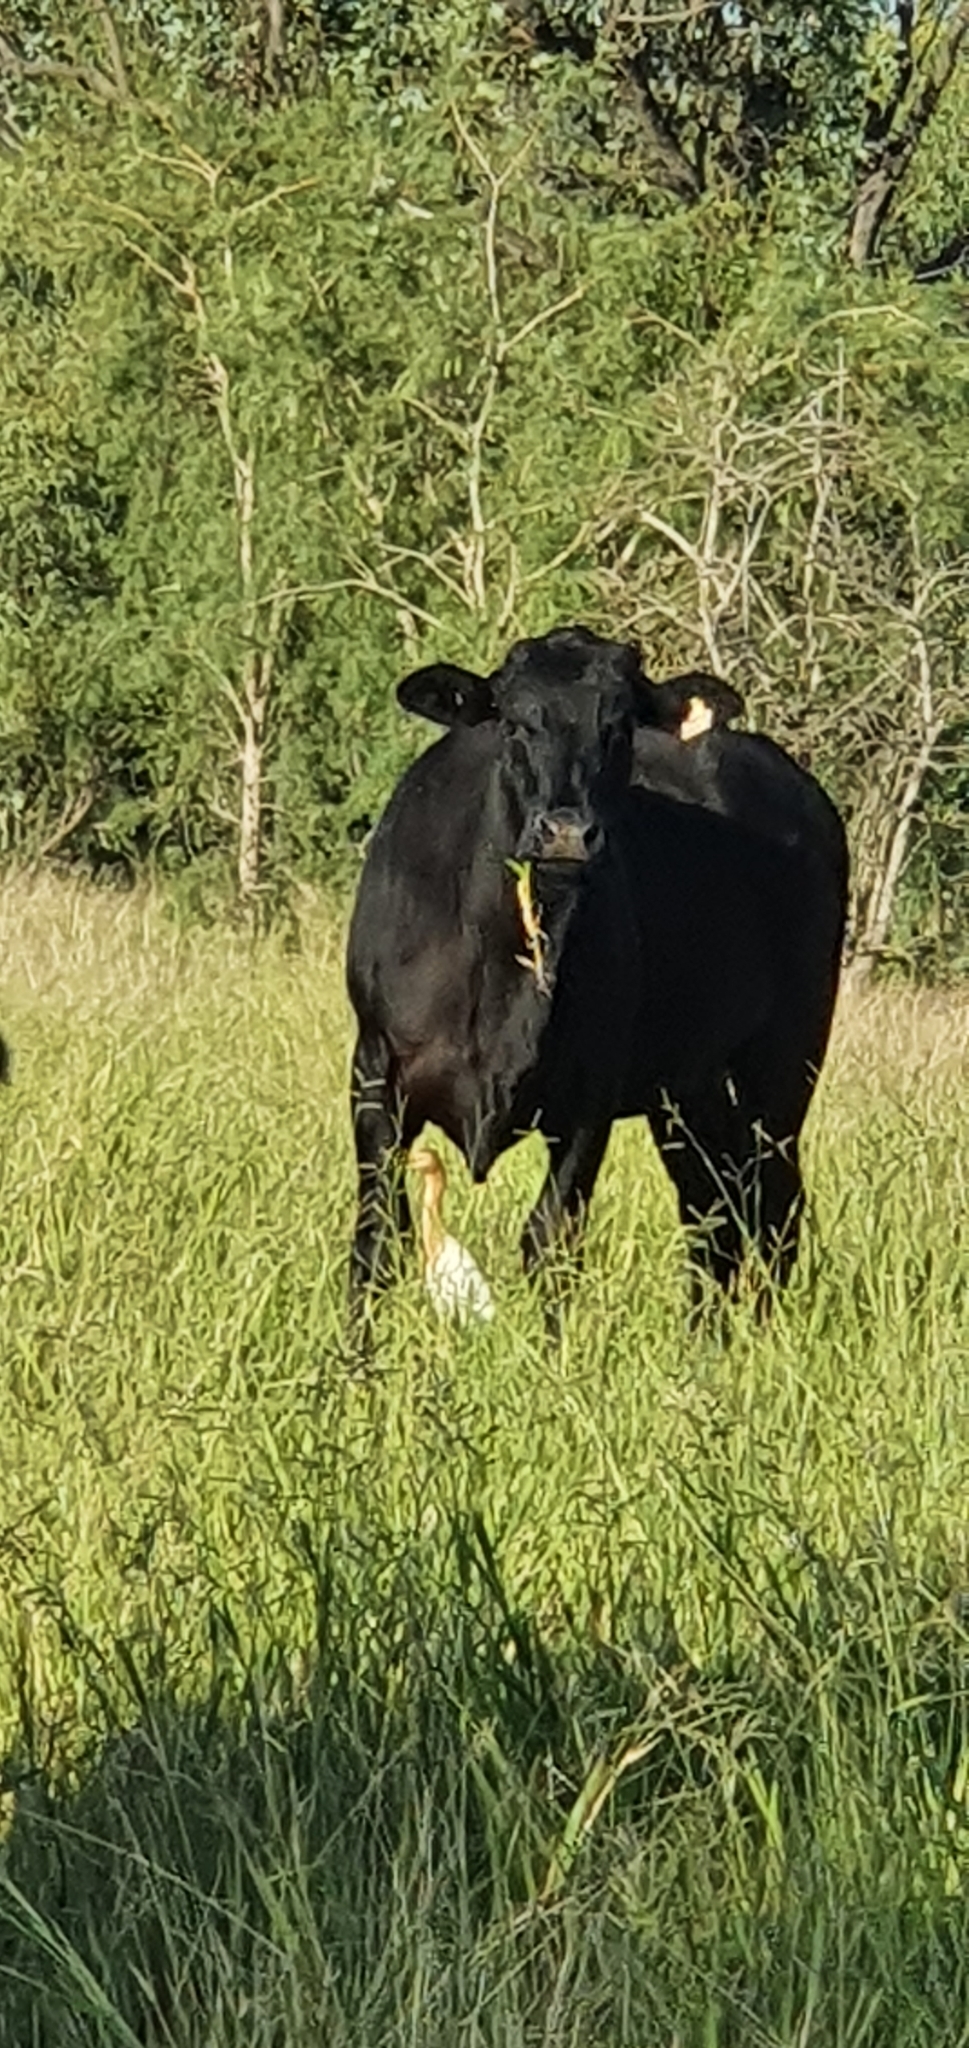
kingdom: Animalia
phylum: Chordata
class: Aves
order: Pelecaniformes
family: Ardeidae
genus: Bubulcus
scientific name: Bubulcus coromandus
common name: Eastern cattle egret
